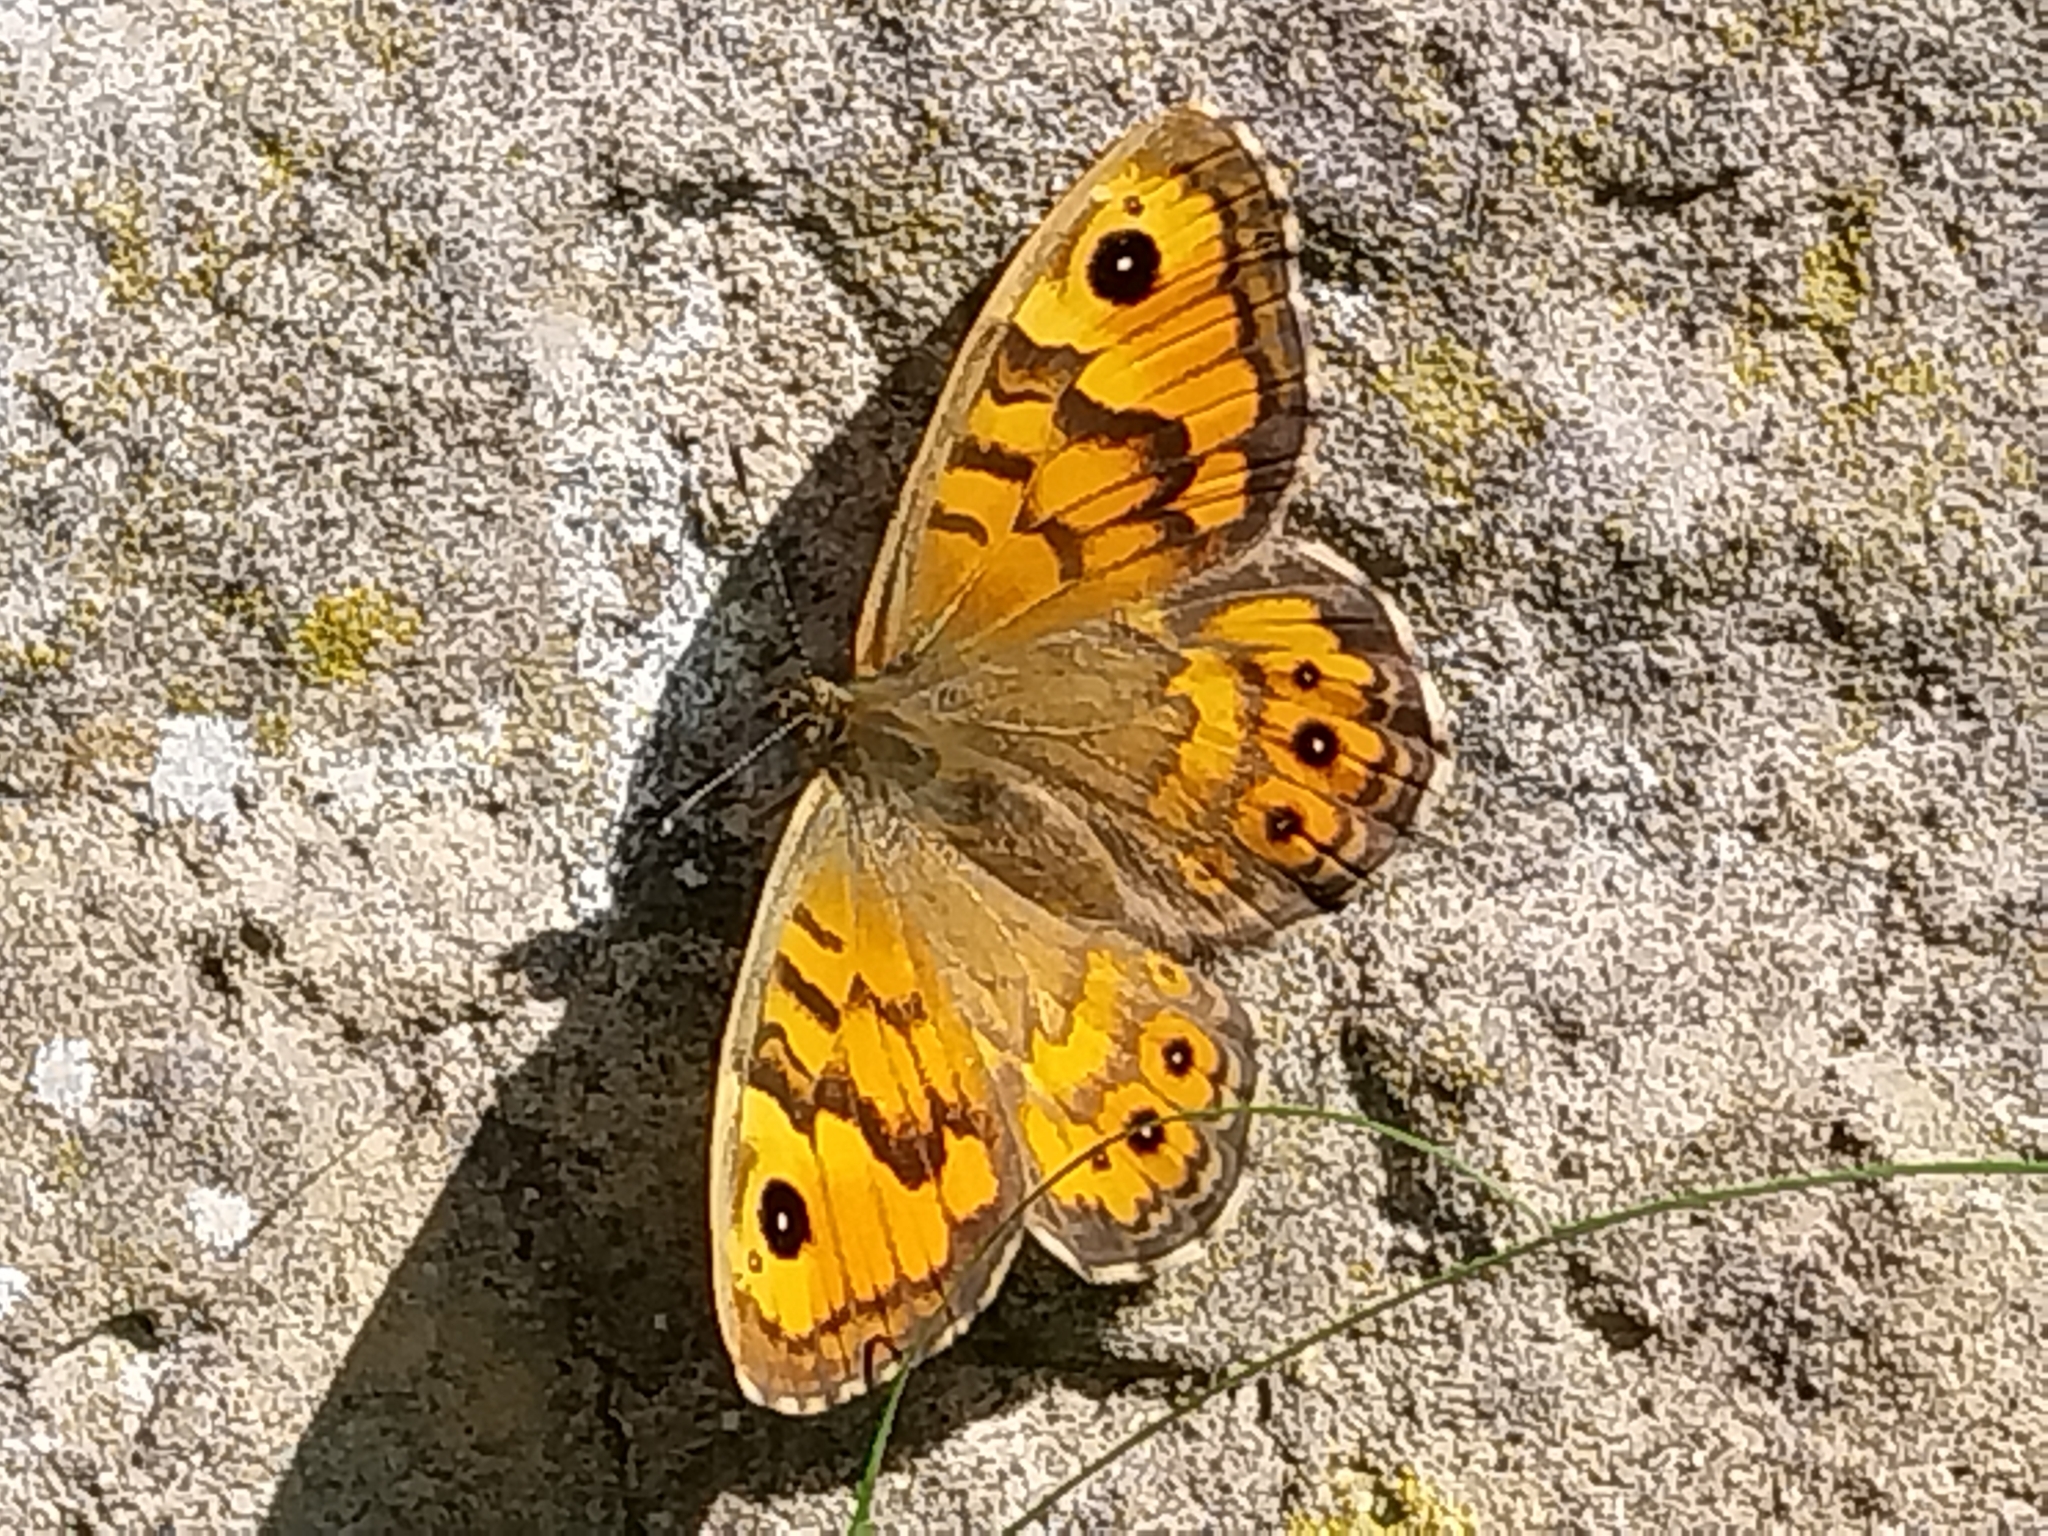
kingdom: Animalia
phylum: Arthropoda
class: Insecta
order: Lepidoptera
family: Nymphalidae
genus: Pararge
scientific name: Pararge Lasiommata megera
